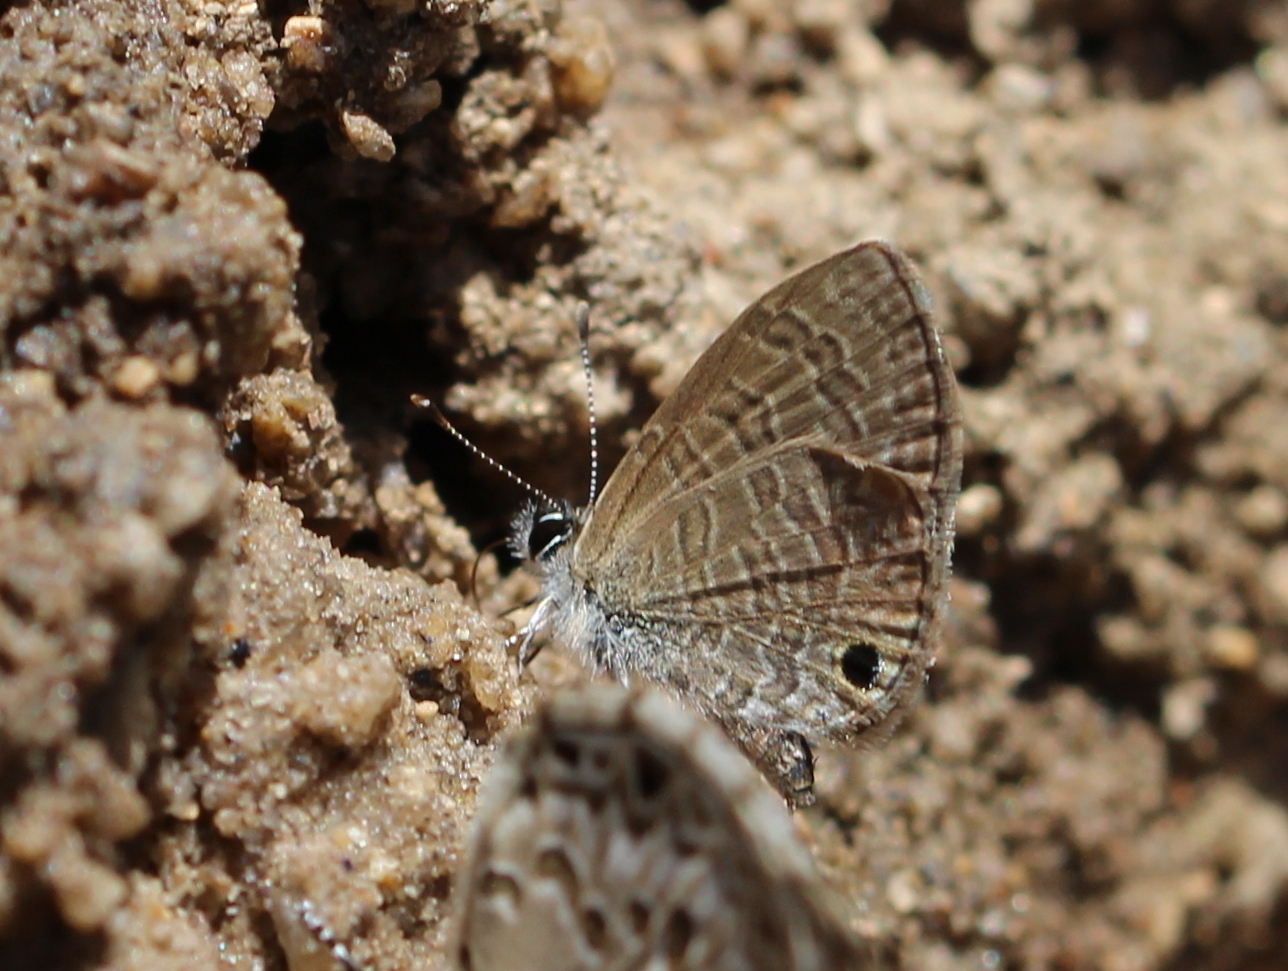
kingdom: Animalia
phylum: Arthropoda
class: Insecta
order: Lepidoptera
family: Lycaenidae
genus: Prosotas
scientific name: Prosotas dubiosa
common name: Tailless lineblue
